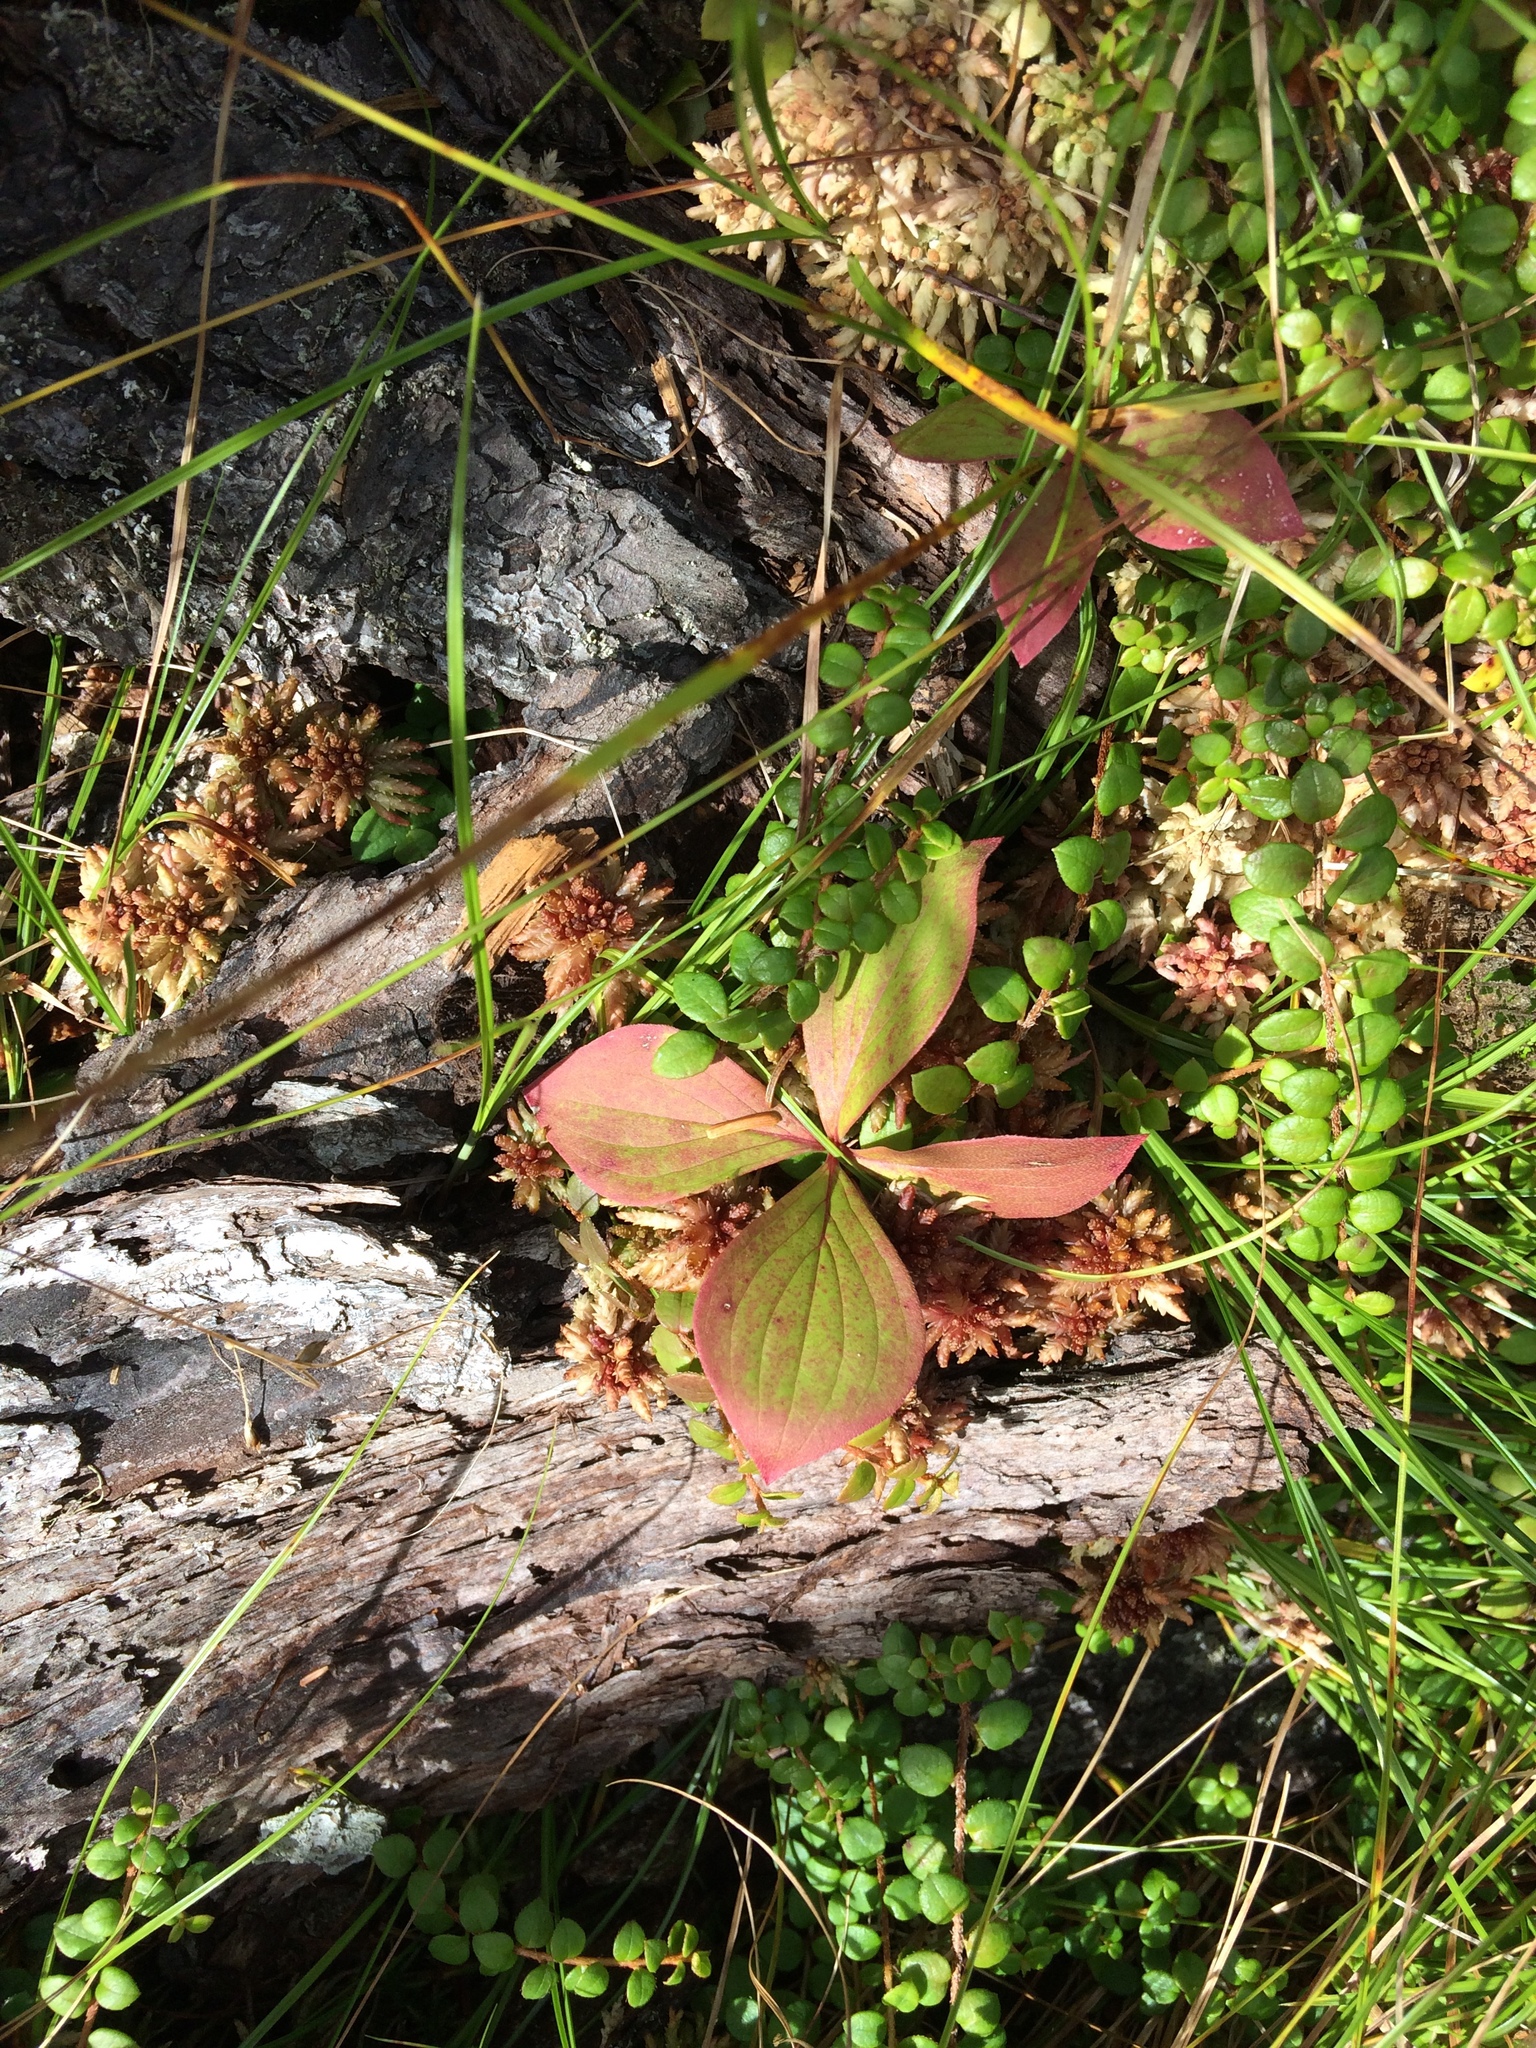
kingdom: Plantae
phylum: Tracheophyta
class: Magnoliopsida
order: Cornales
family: Cornaceae
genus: Cornus
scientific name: Cornus canadensis
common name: Creeping dogwood
